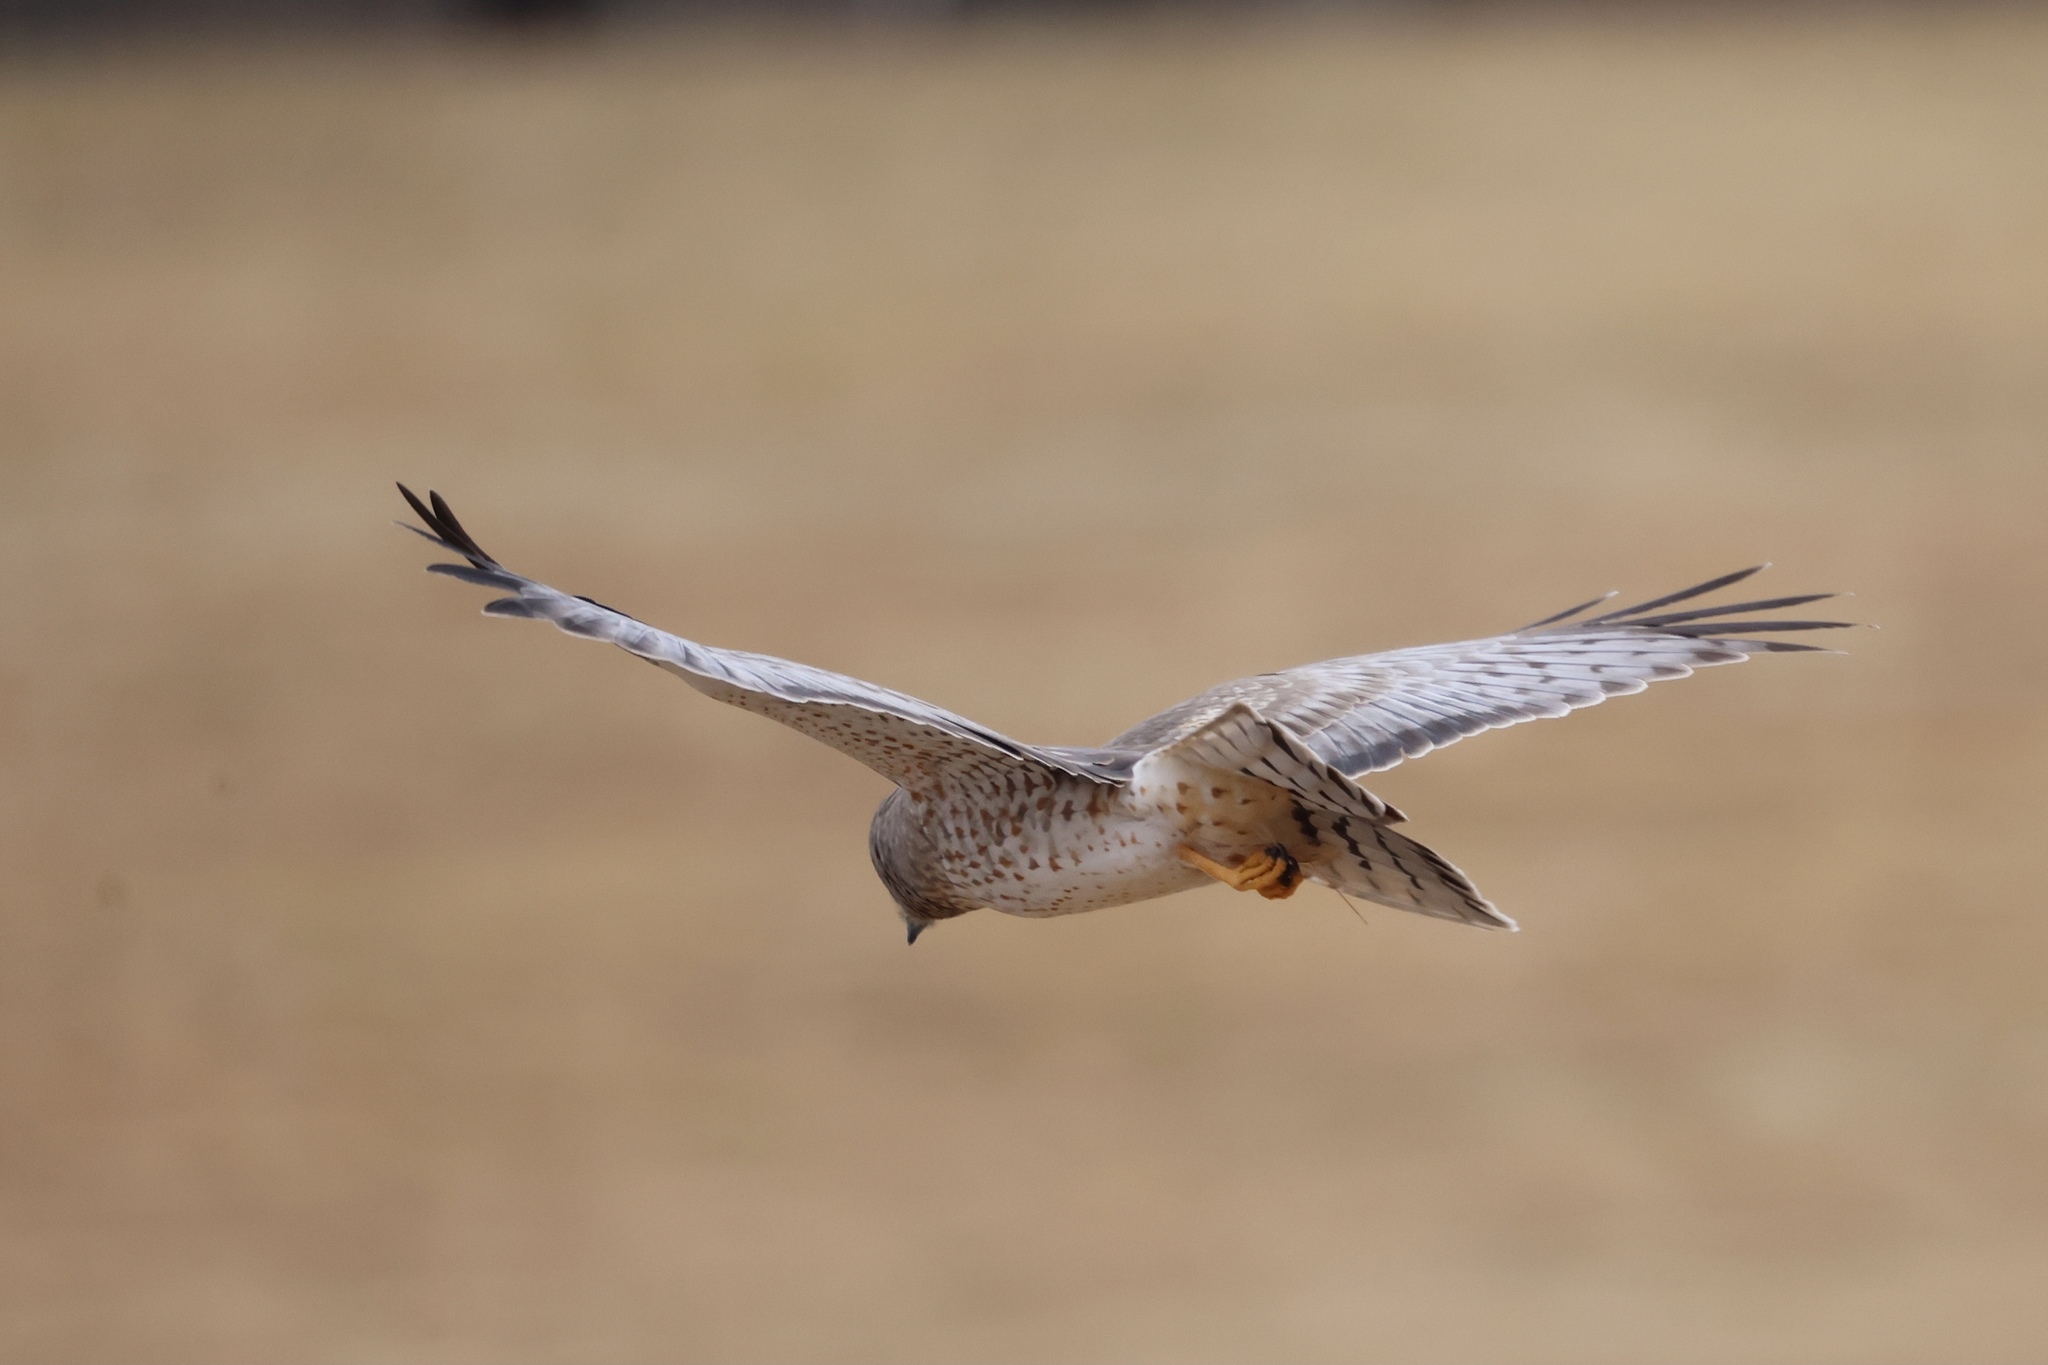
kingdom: Animalia
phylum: Chordata
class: Aves
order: Accipitriformes
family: Accipitridae
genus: Circus
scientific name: Circus cyaneus
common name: Hen harrier
